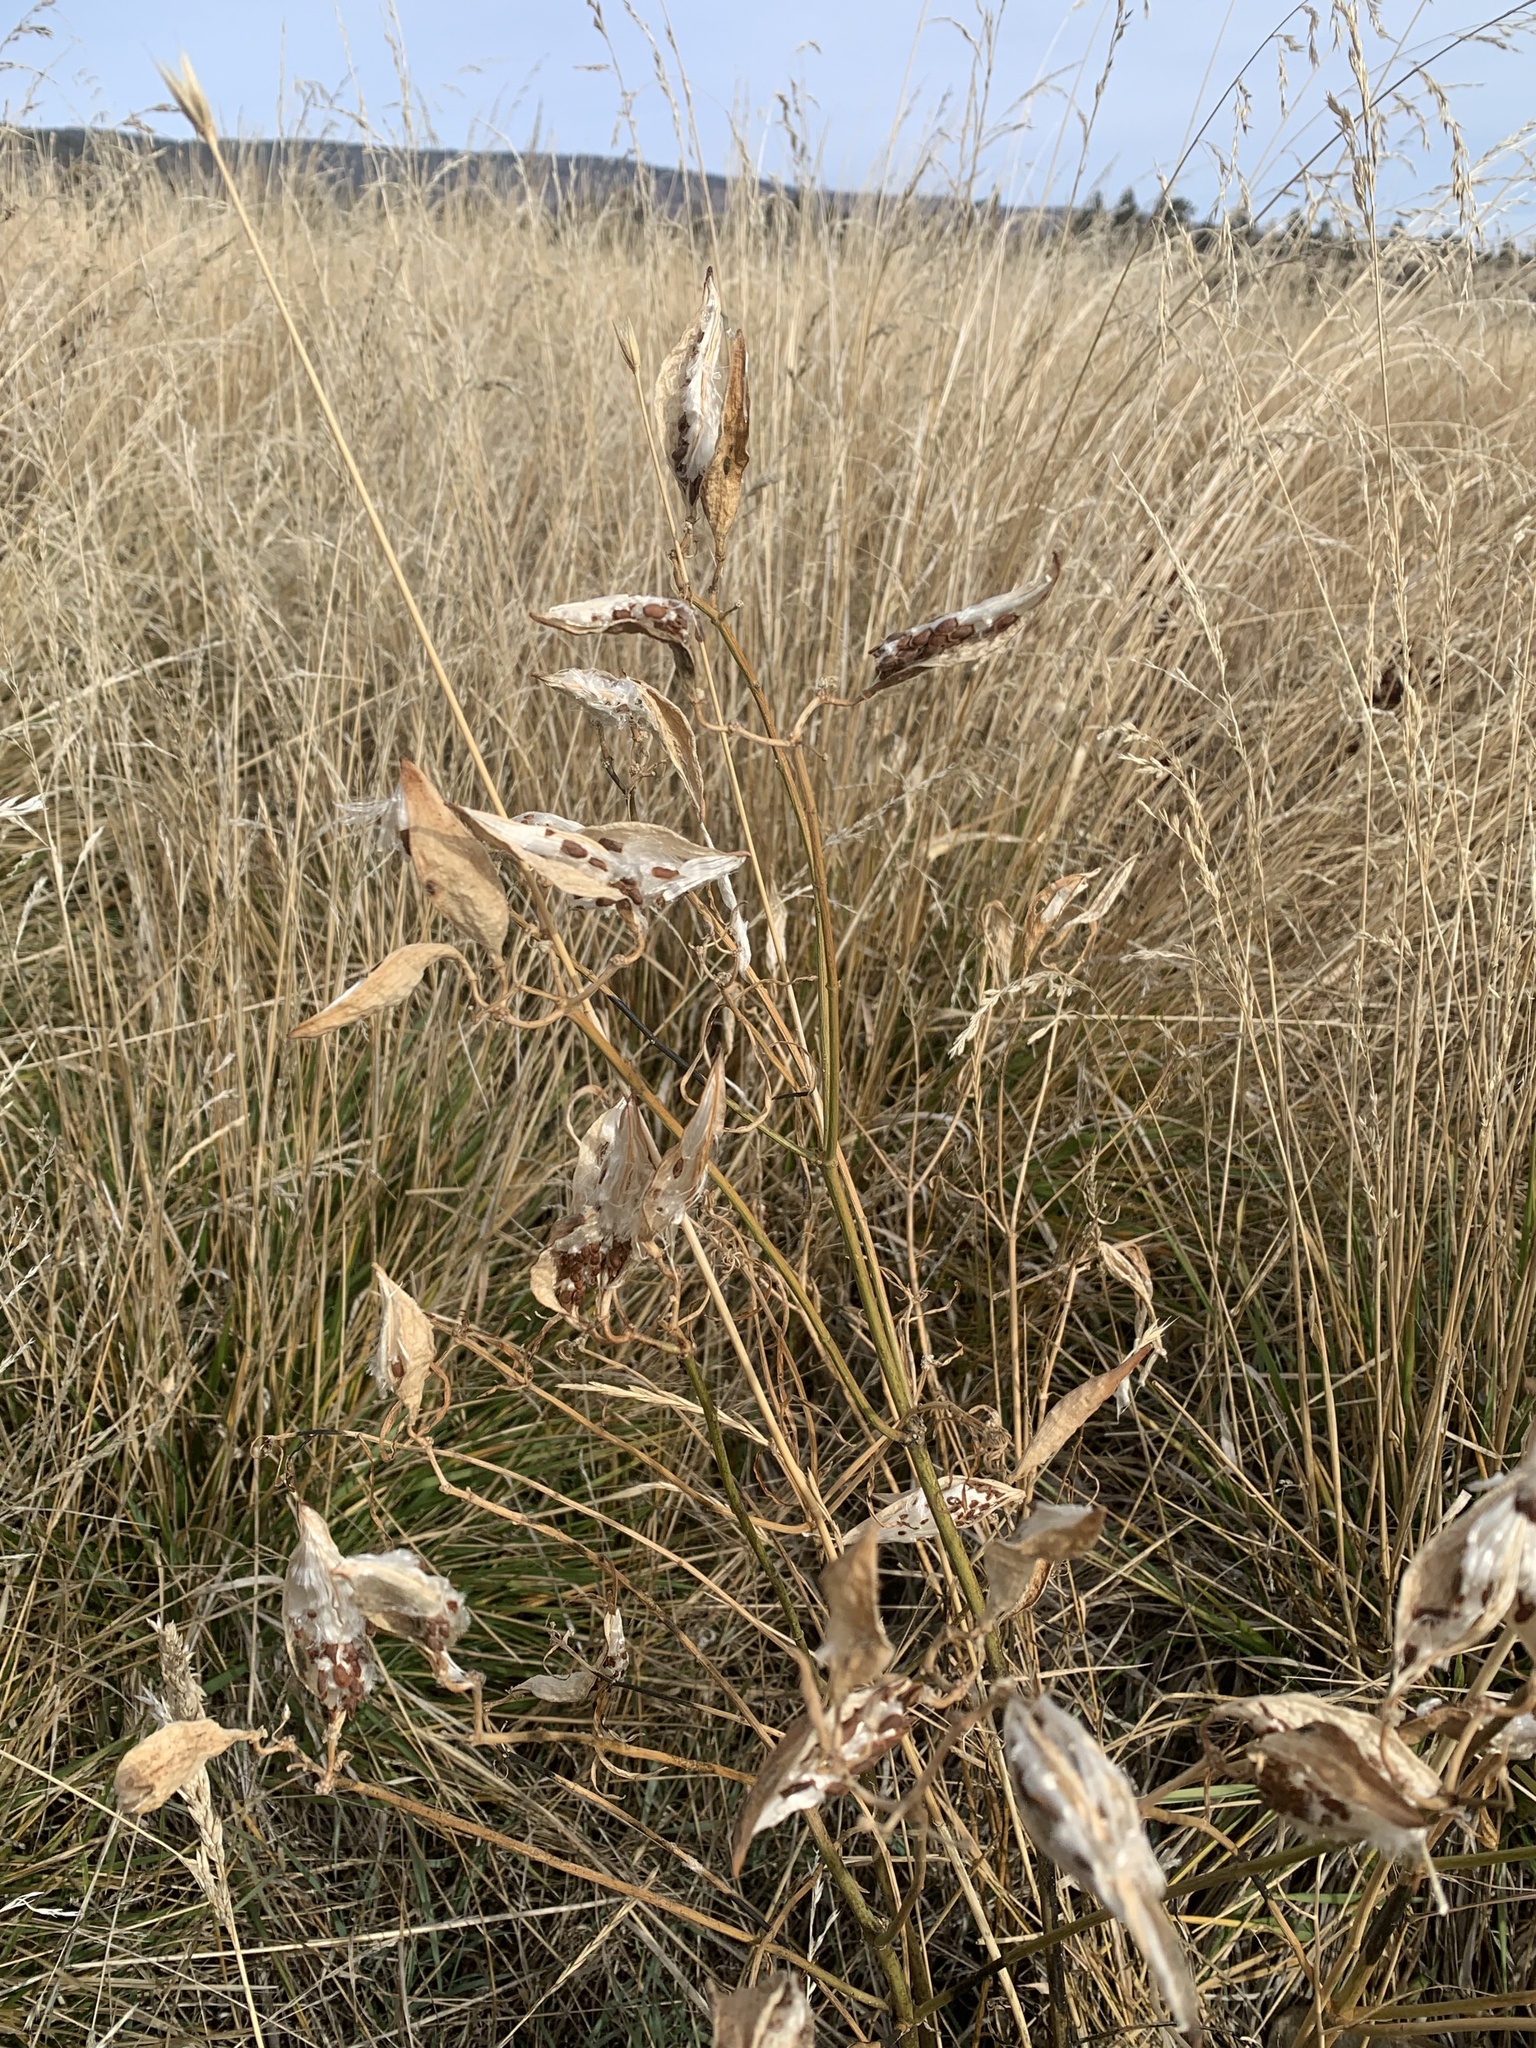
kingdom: Plantae
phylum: Tracheophyta
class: Magnoliopsida
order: Gentianales
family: Apocynaceae
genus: Asclepias
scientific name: Asclepias fascicularis
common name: Mexican milkweed
